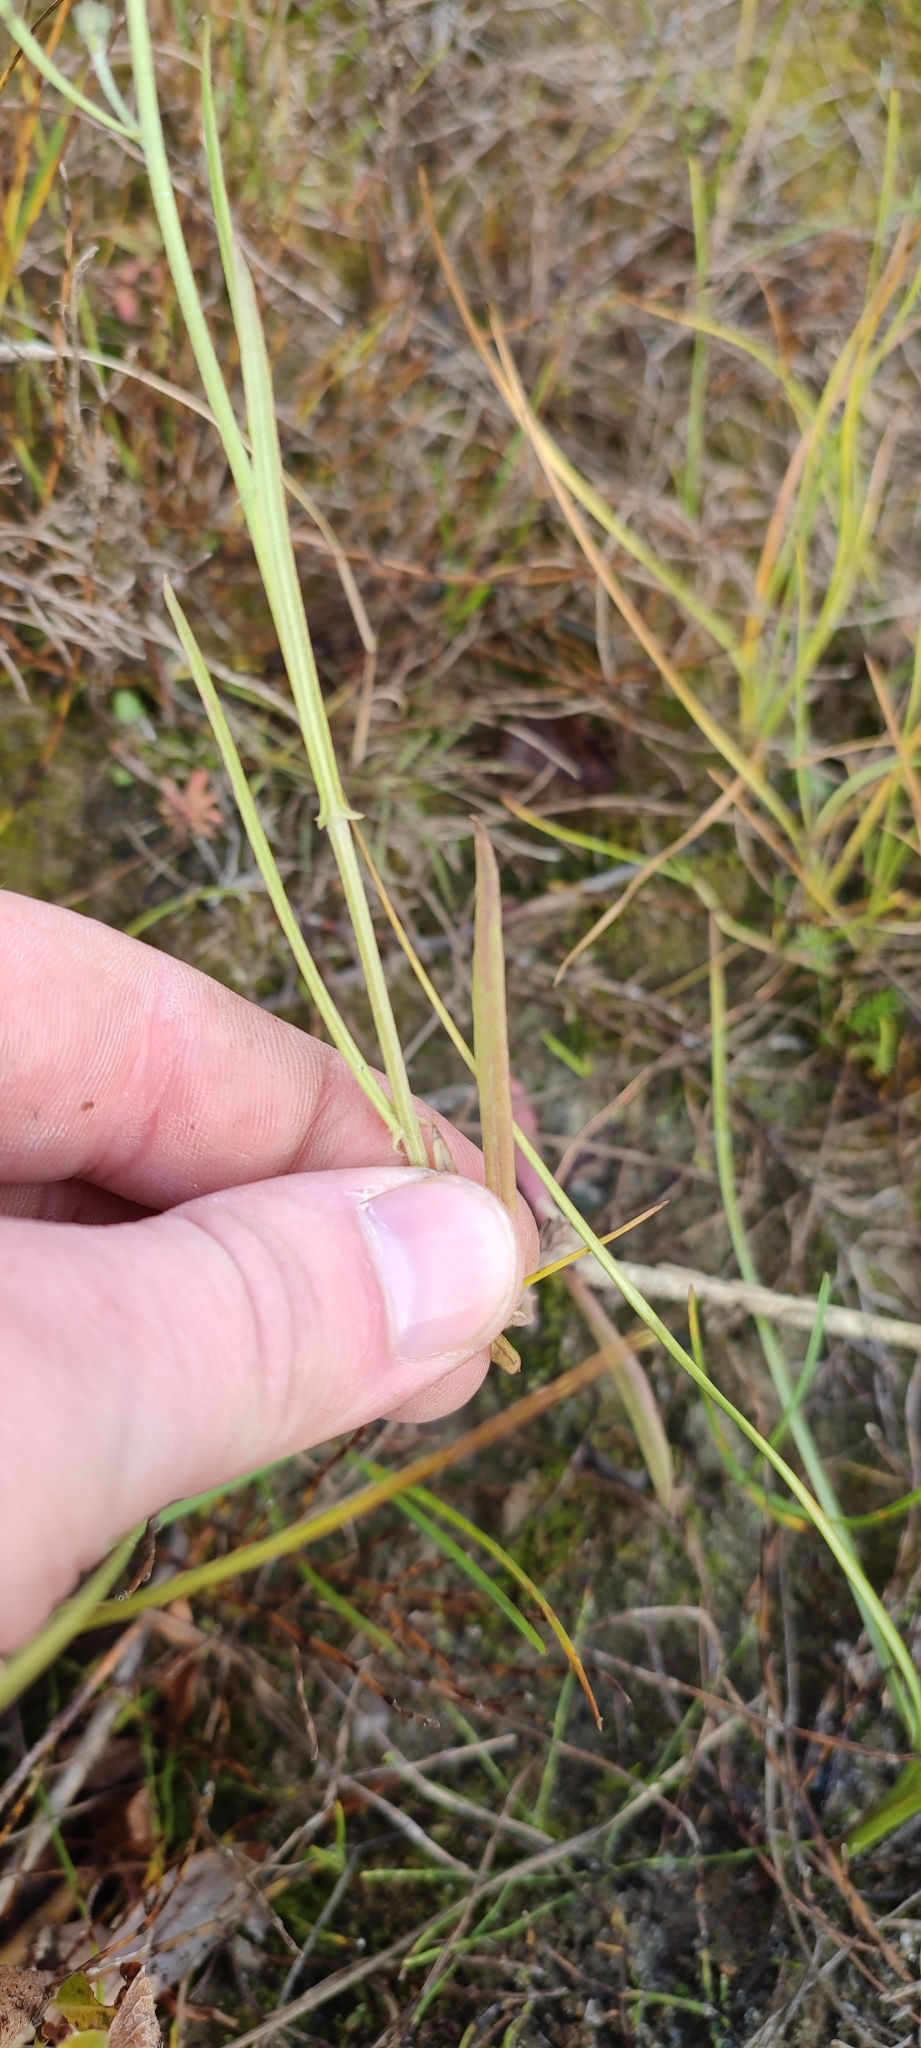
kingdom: Plantae
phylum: Tracheophyta
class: Magnoliopsida
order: Asterales
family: Asteraceae
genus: Crepis
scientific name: Crepis tectorum
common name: Narrow-leaved hawk's-beard
